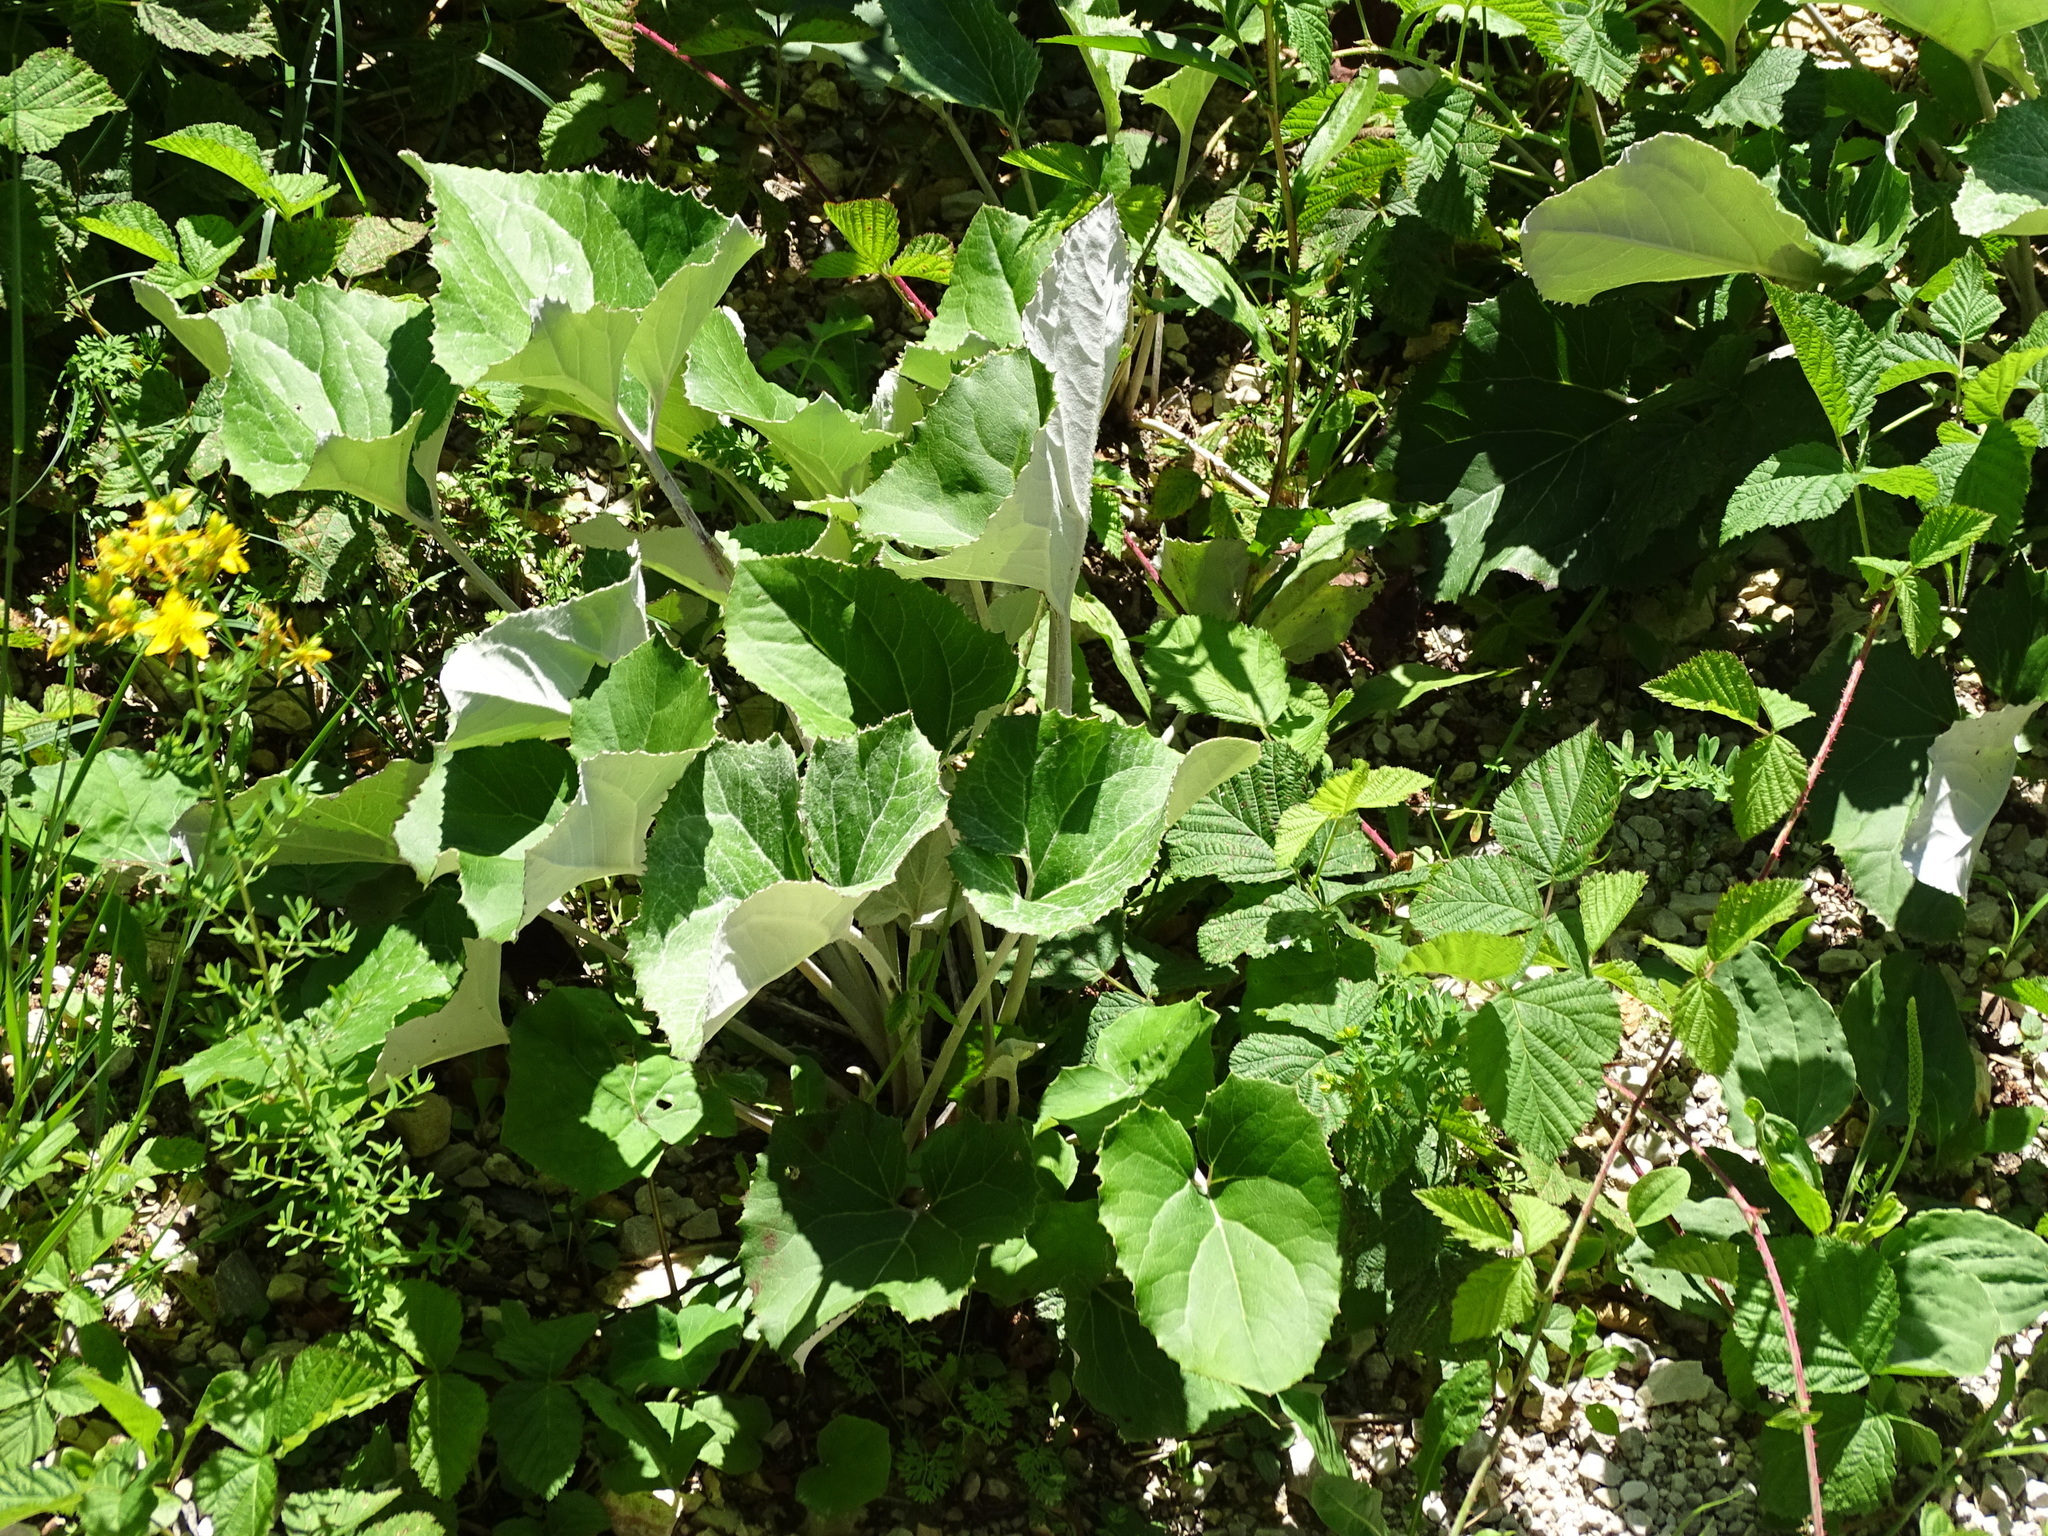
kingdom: Plantae
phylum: Tracheophyta
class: Magnoliopsida
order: Asterales
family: Asteraceae
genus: Petasites
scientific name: Petasites paradoxus
